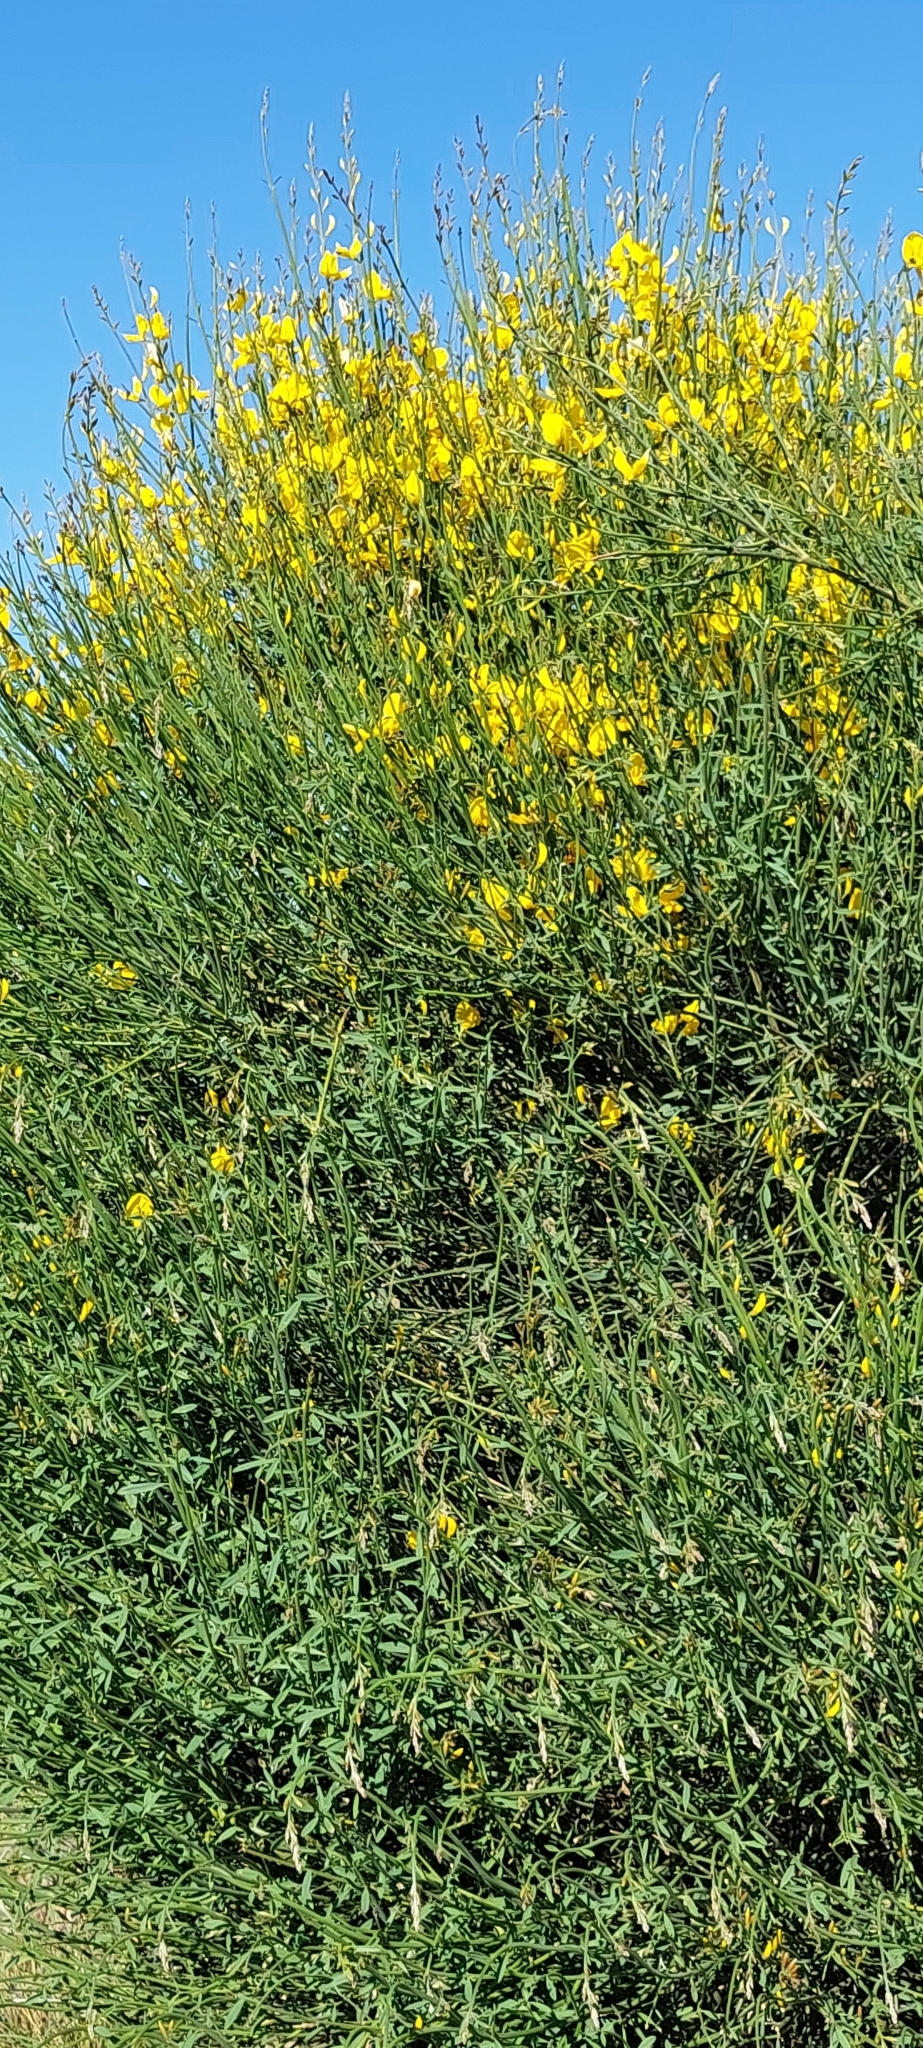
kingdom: Plantae
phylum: Tracheophyta
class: Magnoliopsida
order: Fabales
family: Fabaceae
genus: Spartium
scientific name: Spartium junceum
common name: Spanish broom
